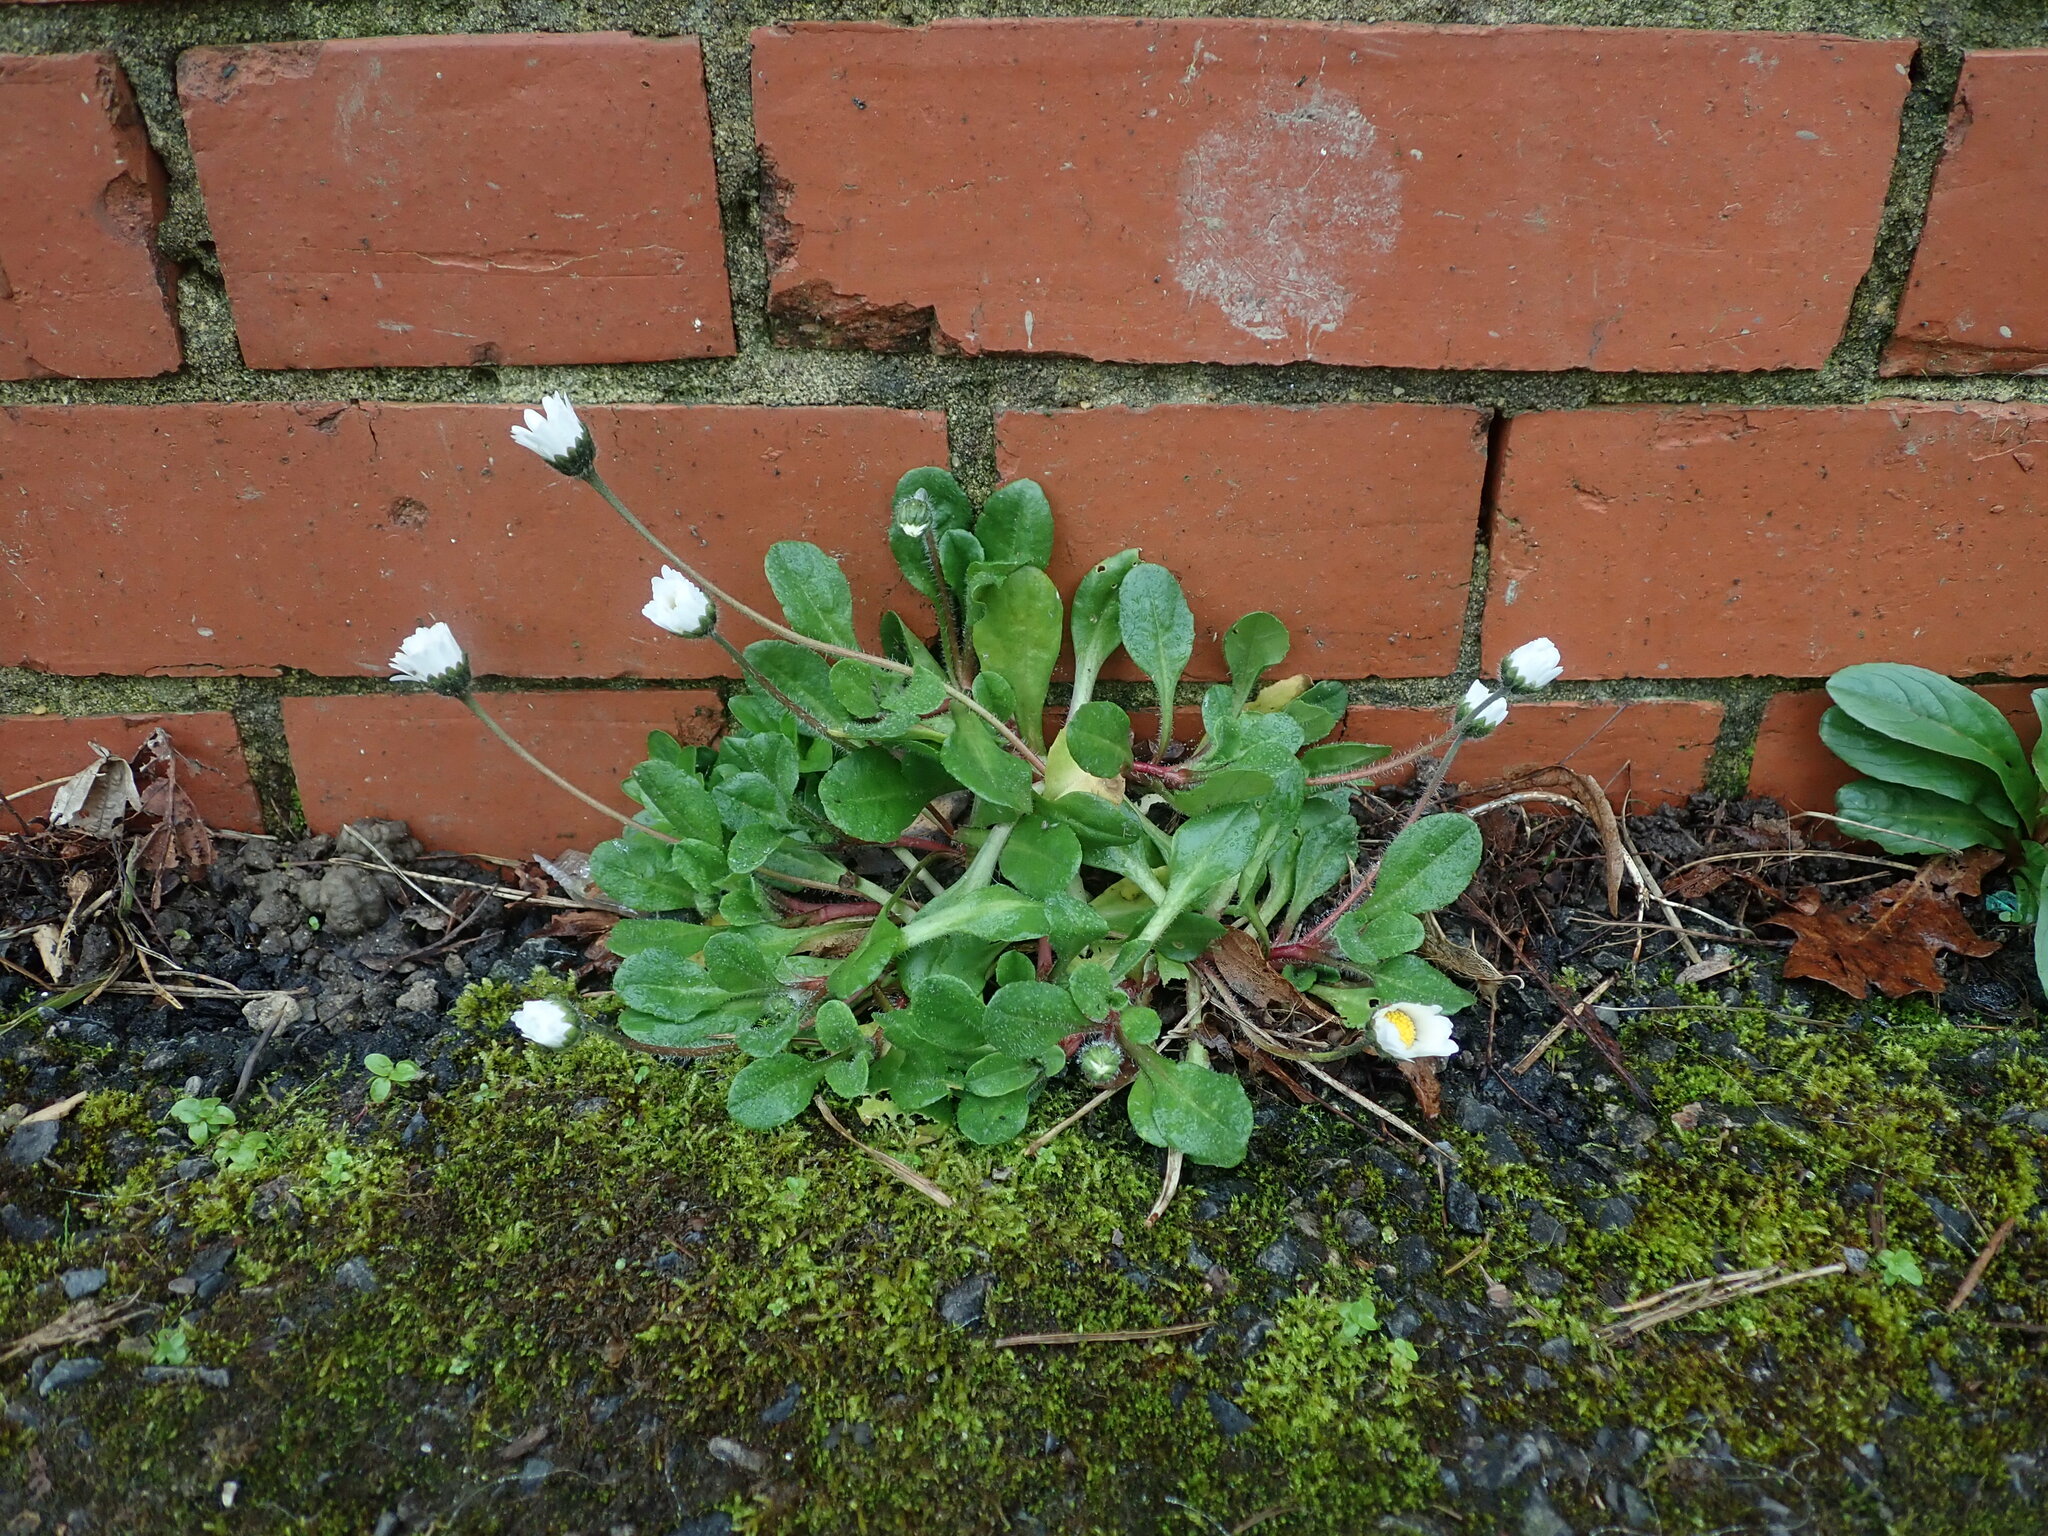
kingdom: Plantae
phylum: Tracheophyta
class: Magnoliopsida
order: Asterales
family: Asteraceae
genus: Bellis
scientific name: Bellis perennis
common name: Lawndaisy
